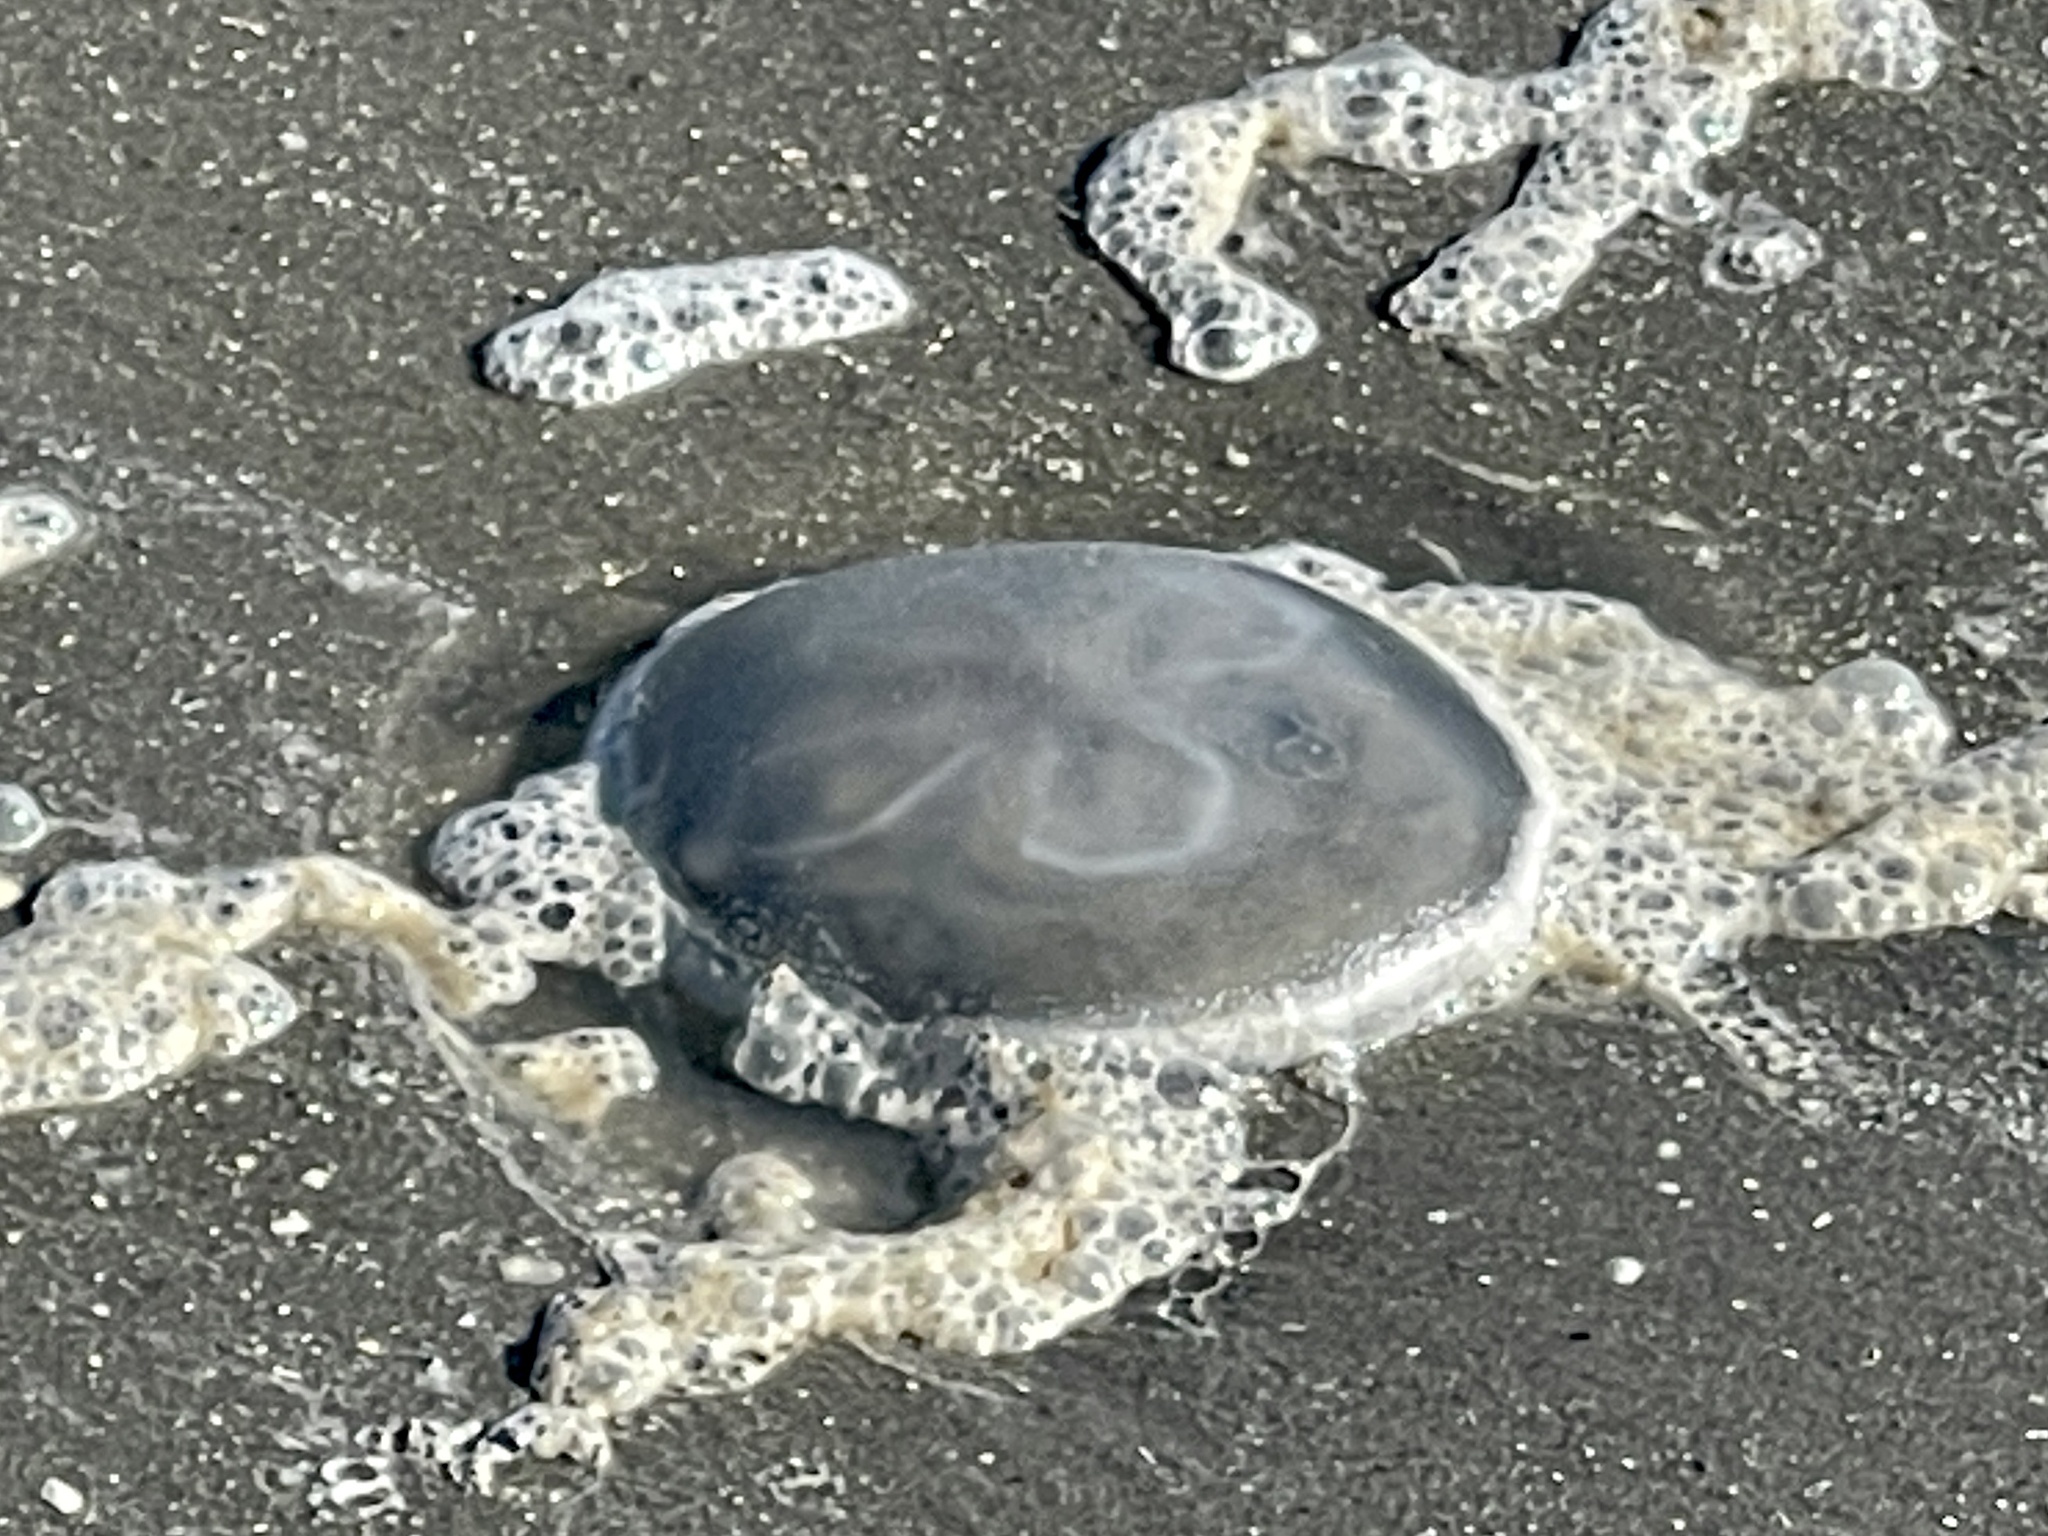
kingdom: Animalia
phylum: Cnidaria
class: Scyphozoa
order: Semaeostomeae
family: Ulmaridae
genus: Aurelia
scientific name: Aurelia marginalis
